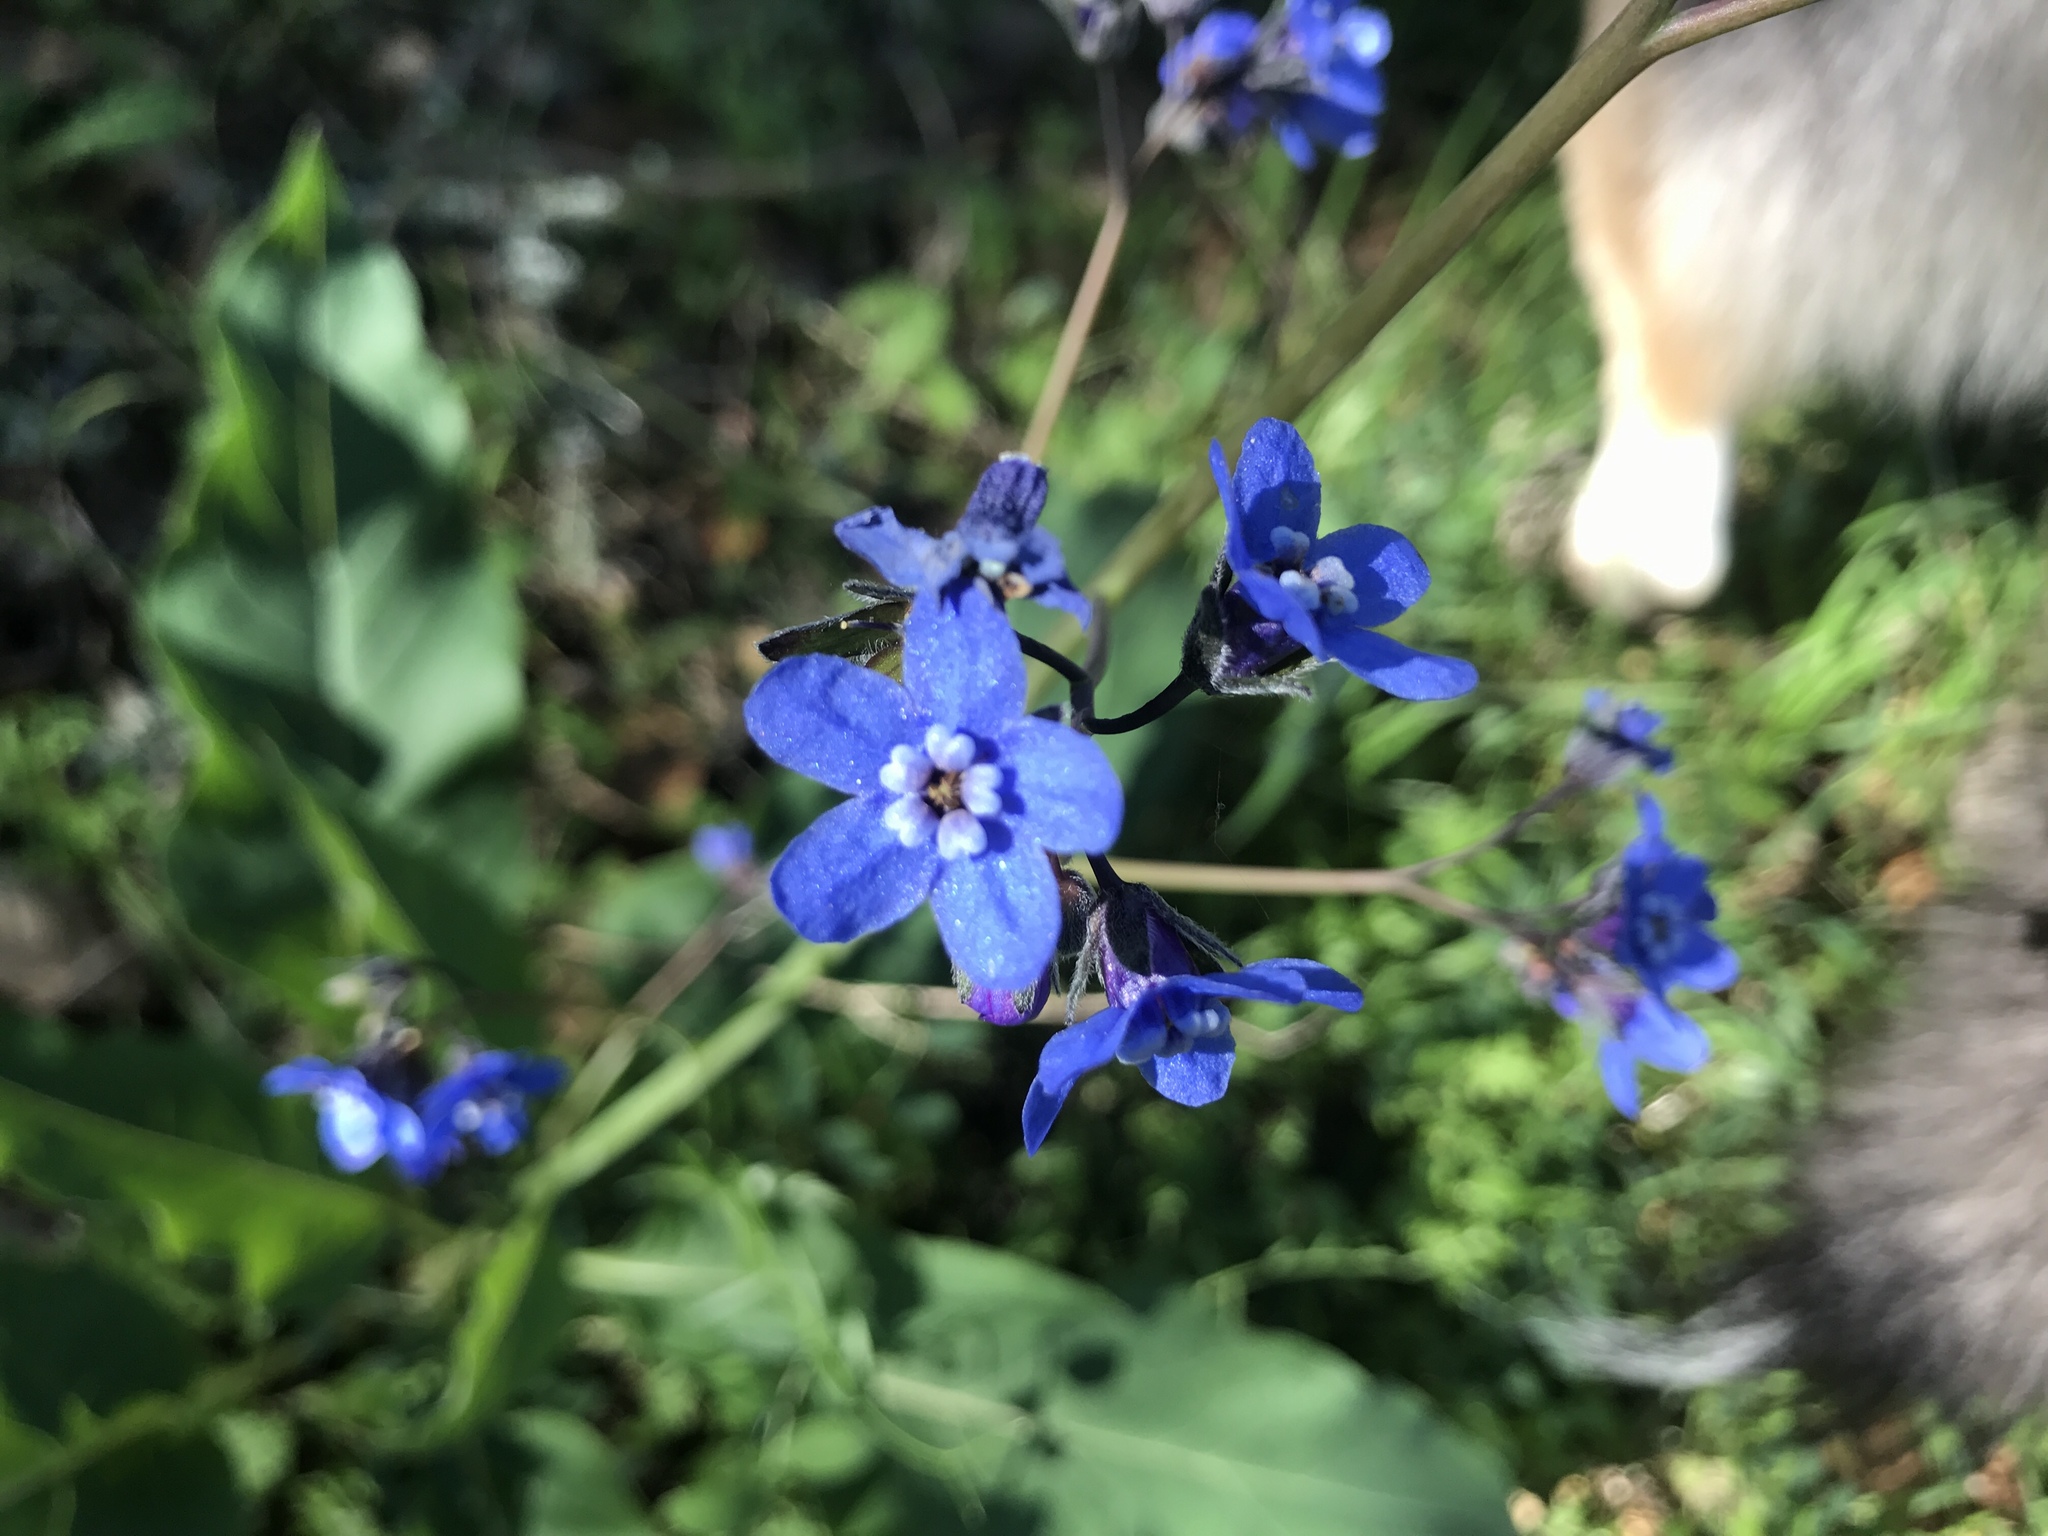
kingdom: Plantae
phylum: Tracheophyta
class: Magnoliopsida
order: Boraginales
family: Boraginaceae
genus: Adelinia
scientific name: Adelinia grande
